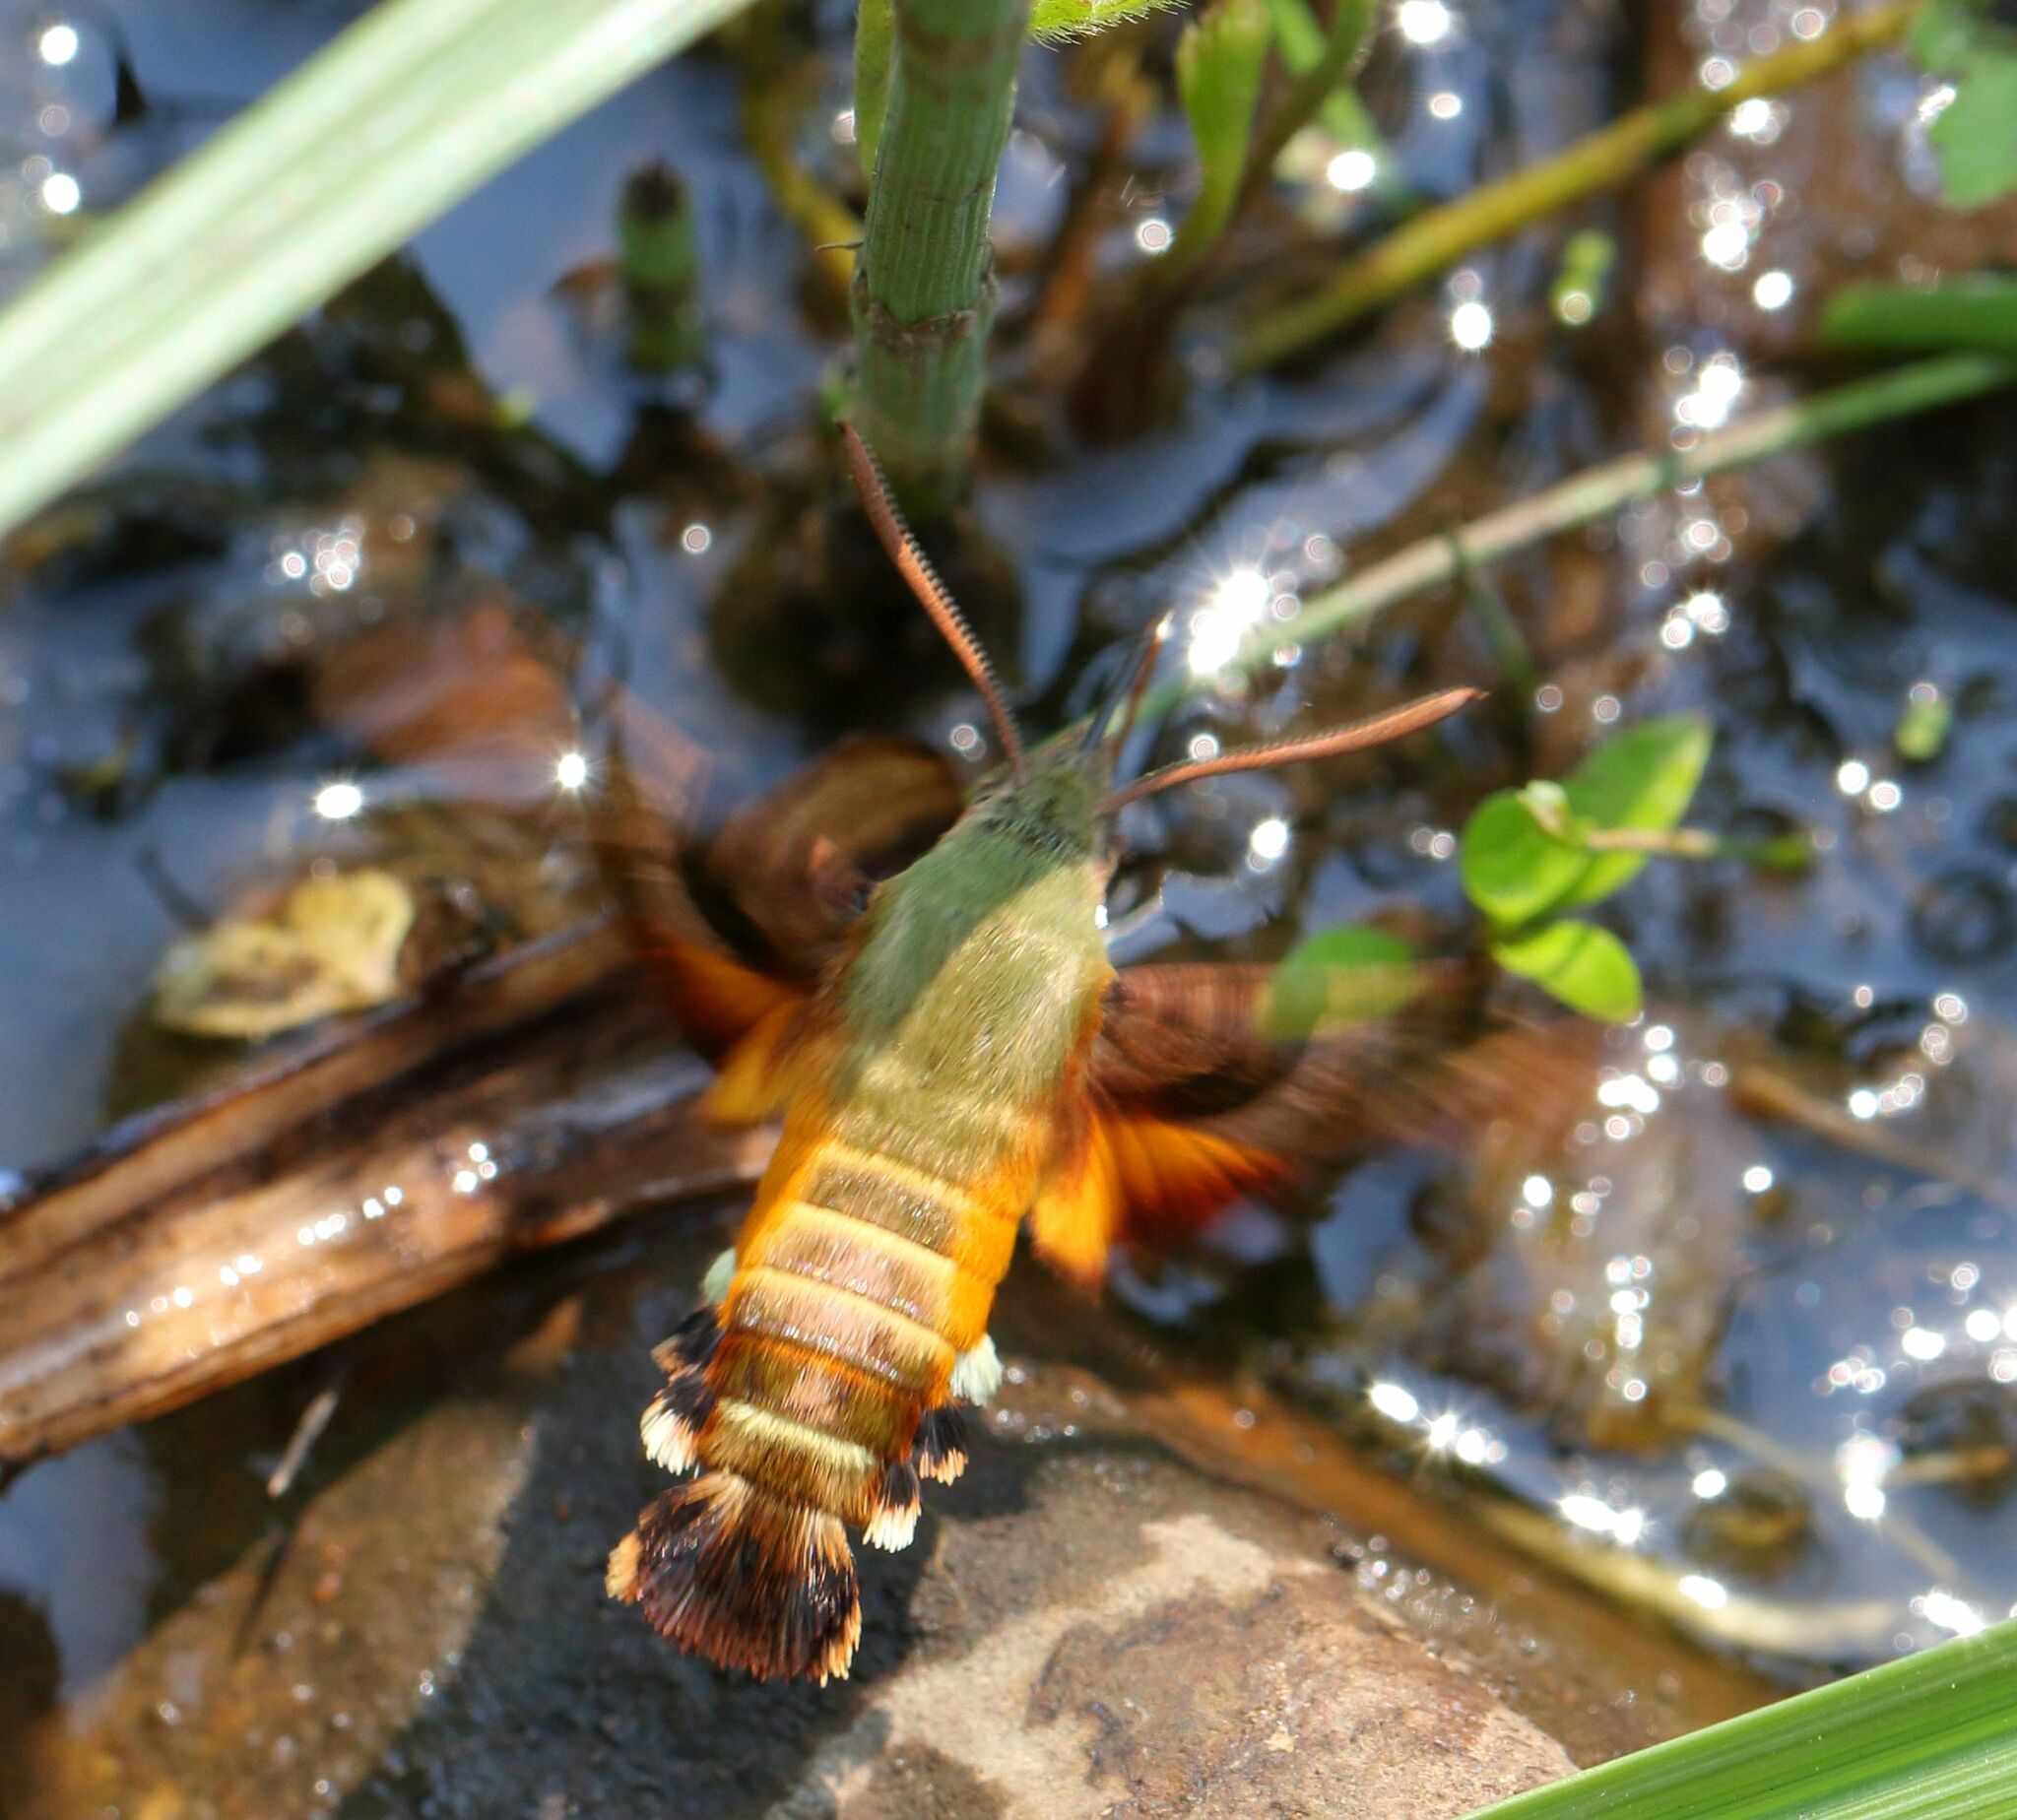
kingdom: Animalia
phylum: Arthropoda
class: Insecta
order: Lepidoptera
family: Sphingidae
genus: Macroglossum
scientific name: Macroglossum trochilus
